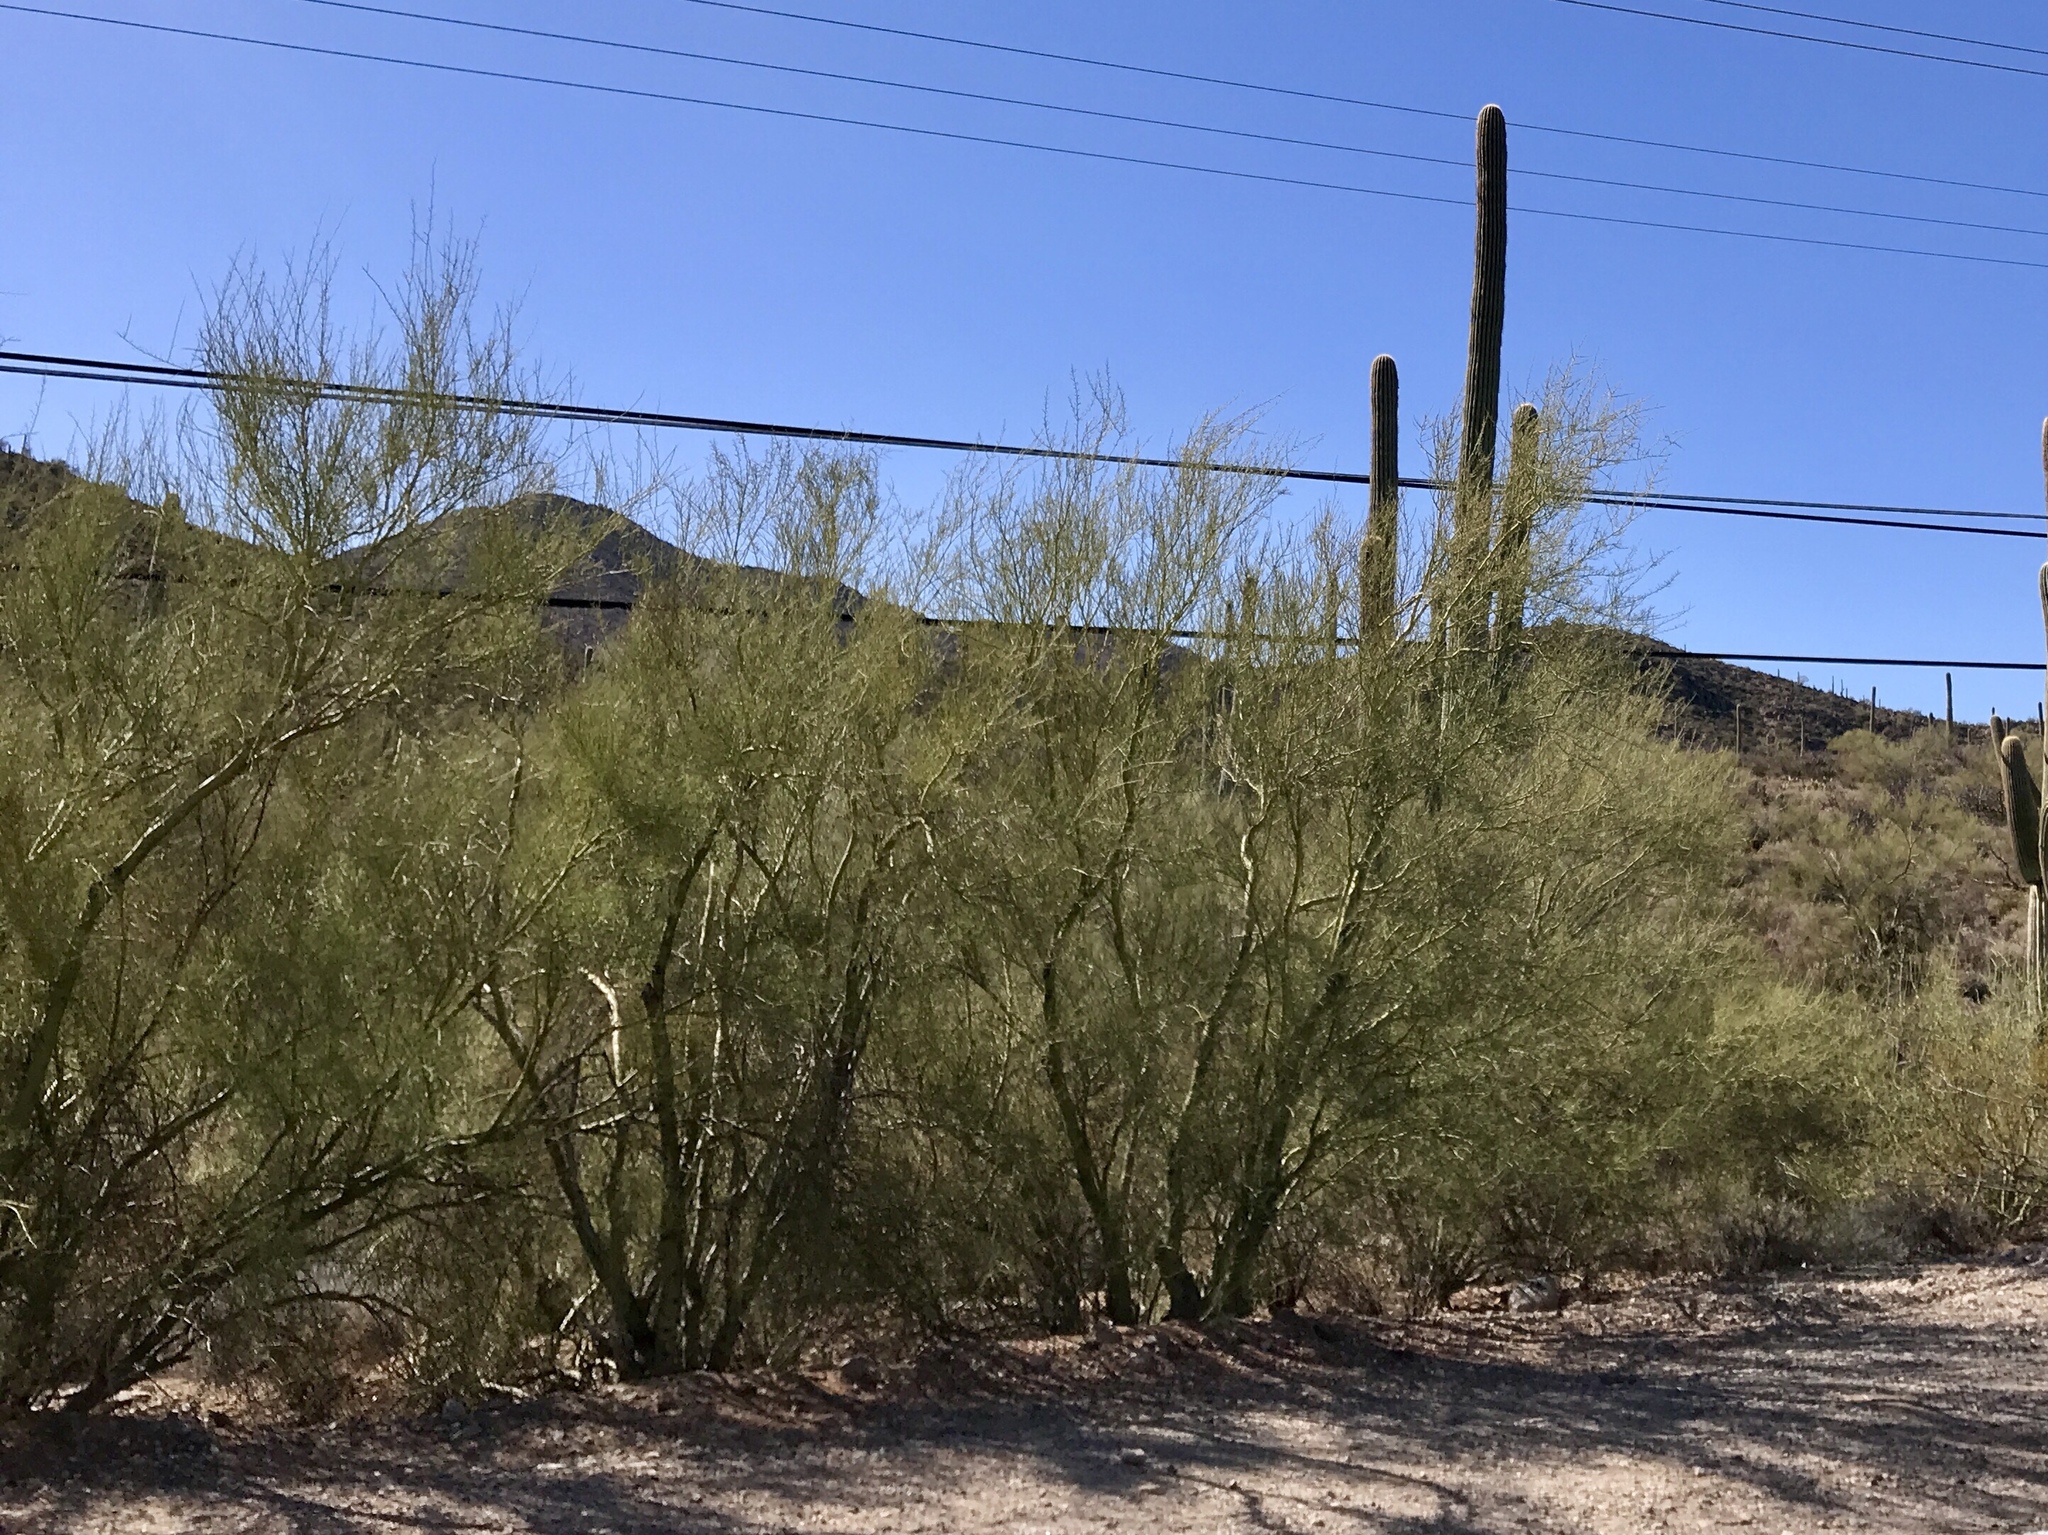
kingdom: Plantae
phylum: Tracheophyta
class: Magnoliopsida
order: Fabales
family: Fabaceae
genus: Parkinsonia
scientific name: Parkinsonia microphylla
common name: Yellow paloverde
